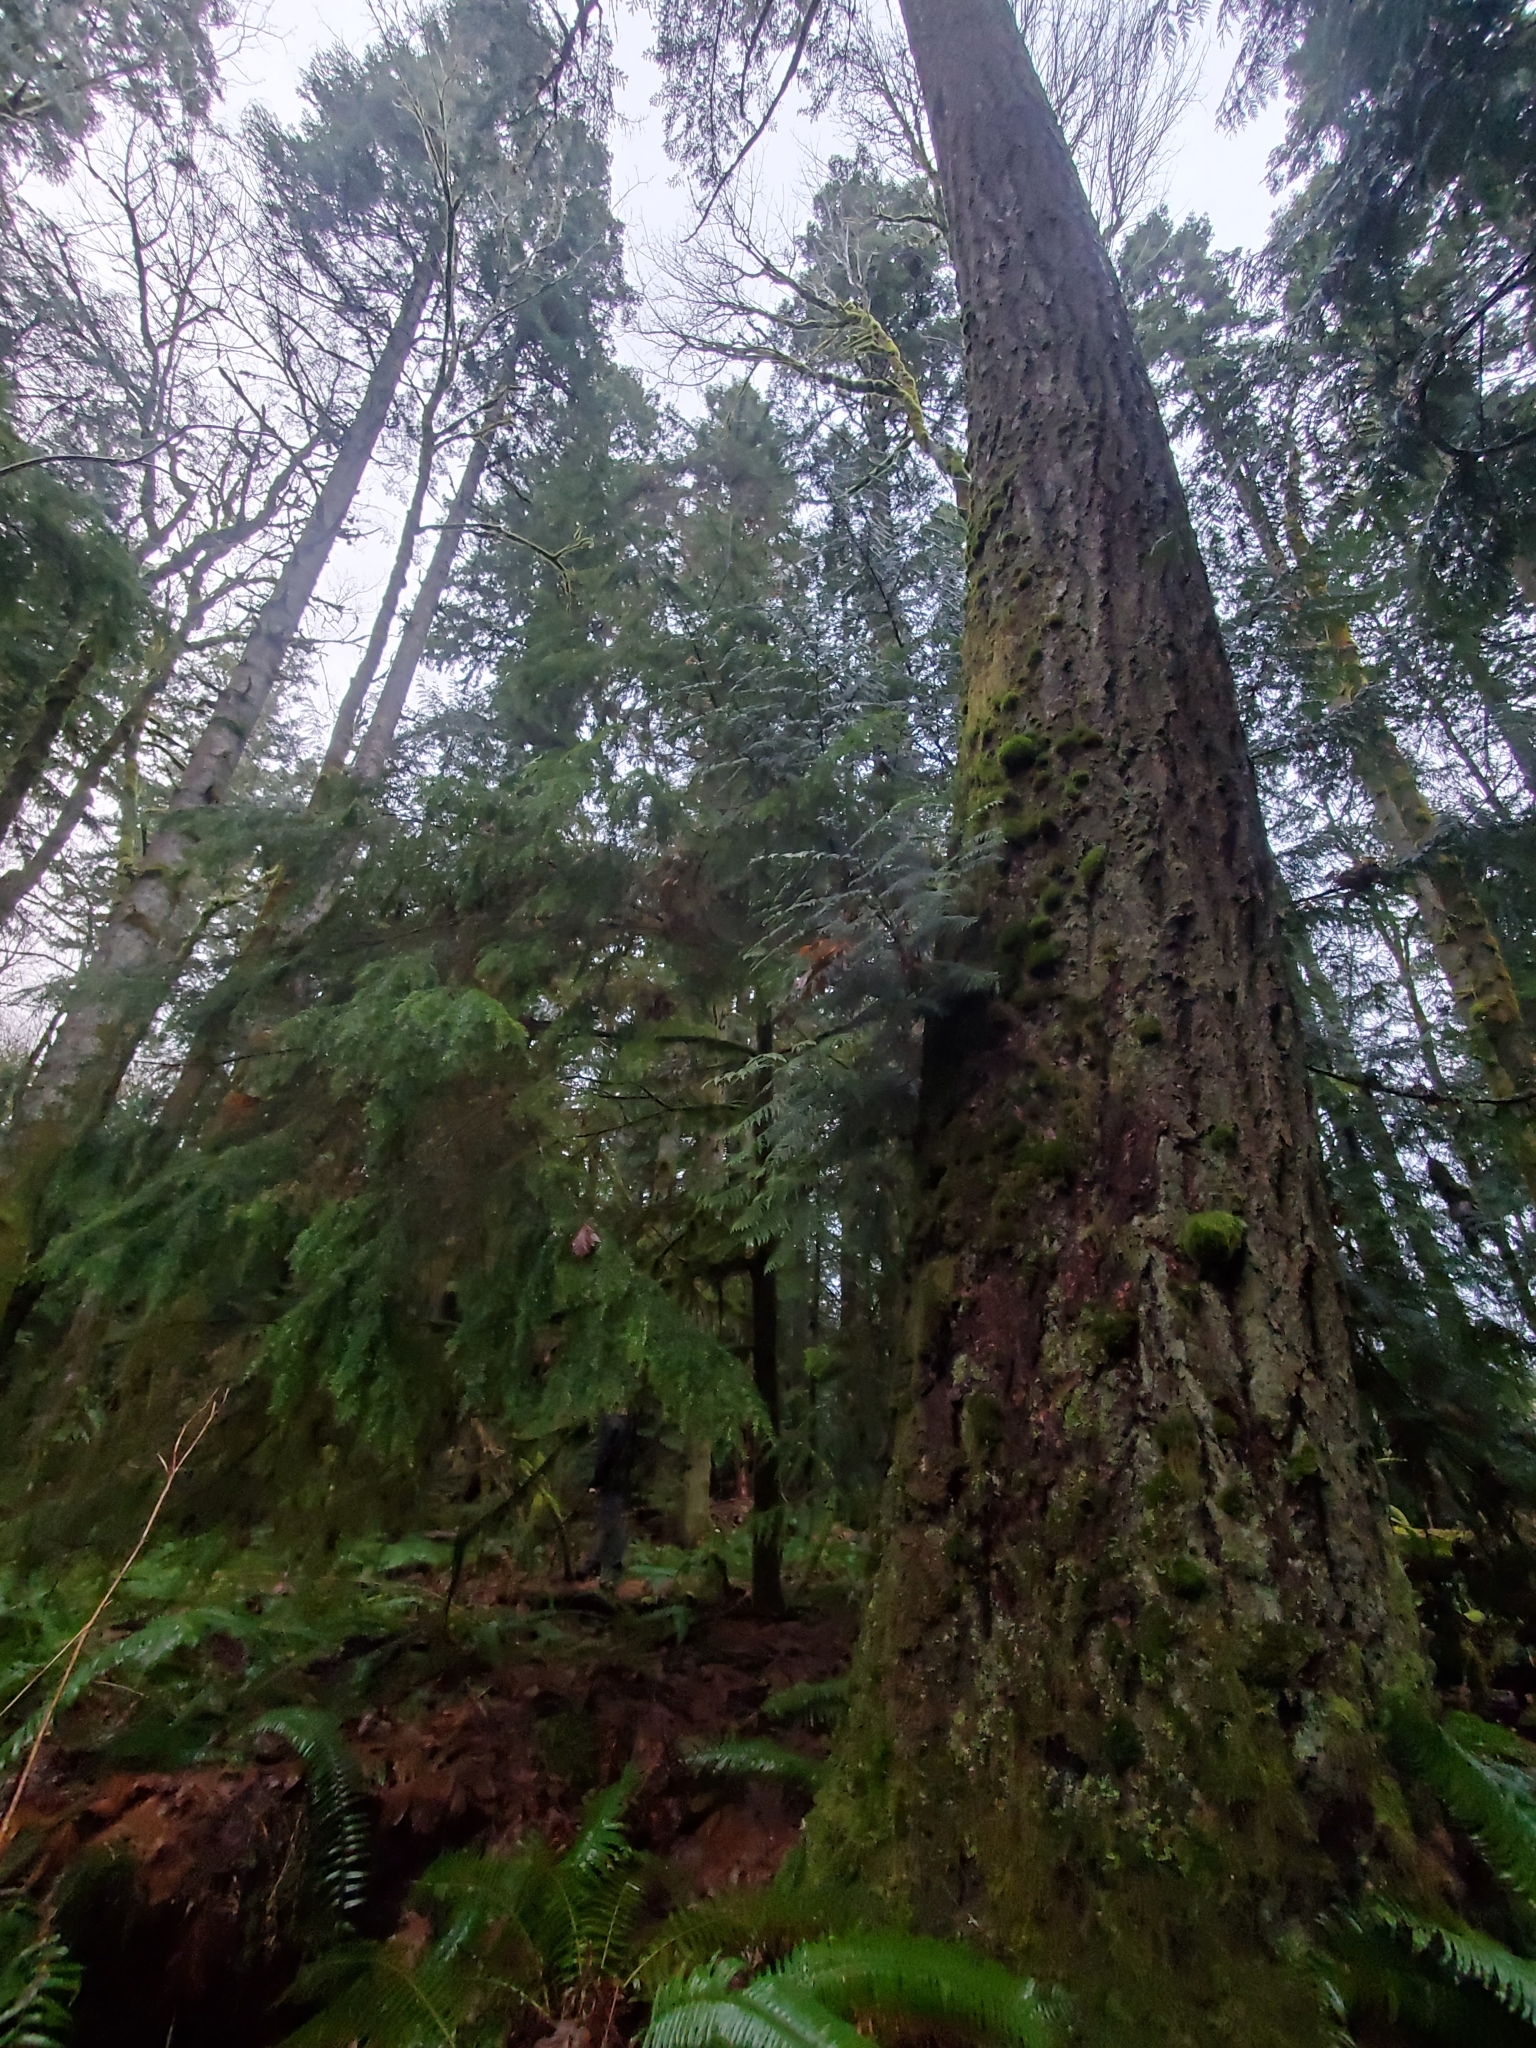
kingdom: Plantae
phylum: Tracheophyta
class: Pinopsida
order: Pinales
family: Pinaceae
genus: Pseudotsuga
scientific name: Pseudotsuga menziesii
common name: Douglas fir
